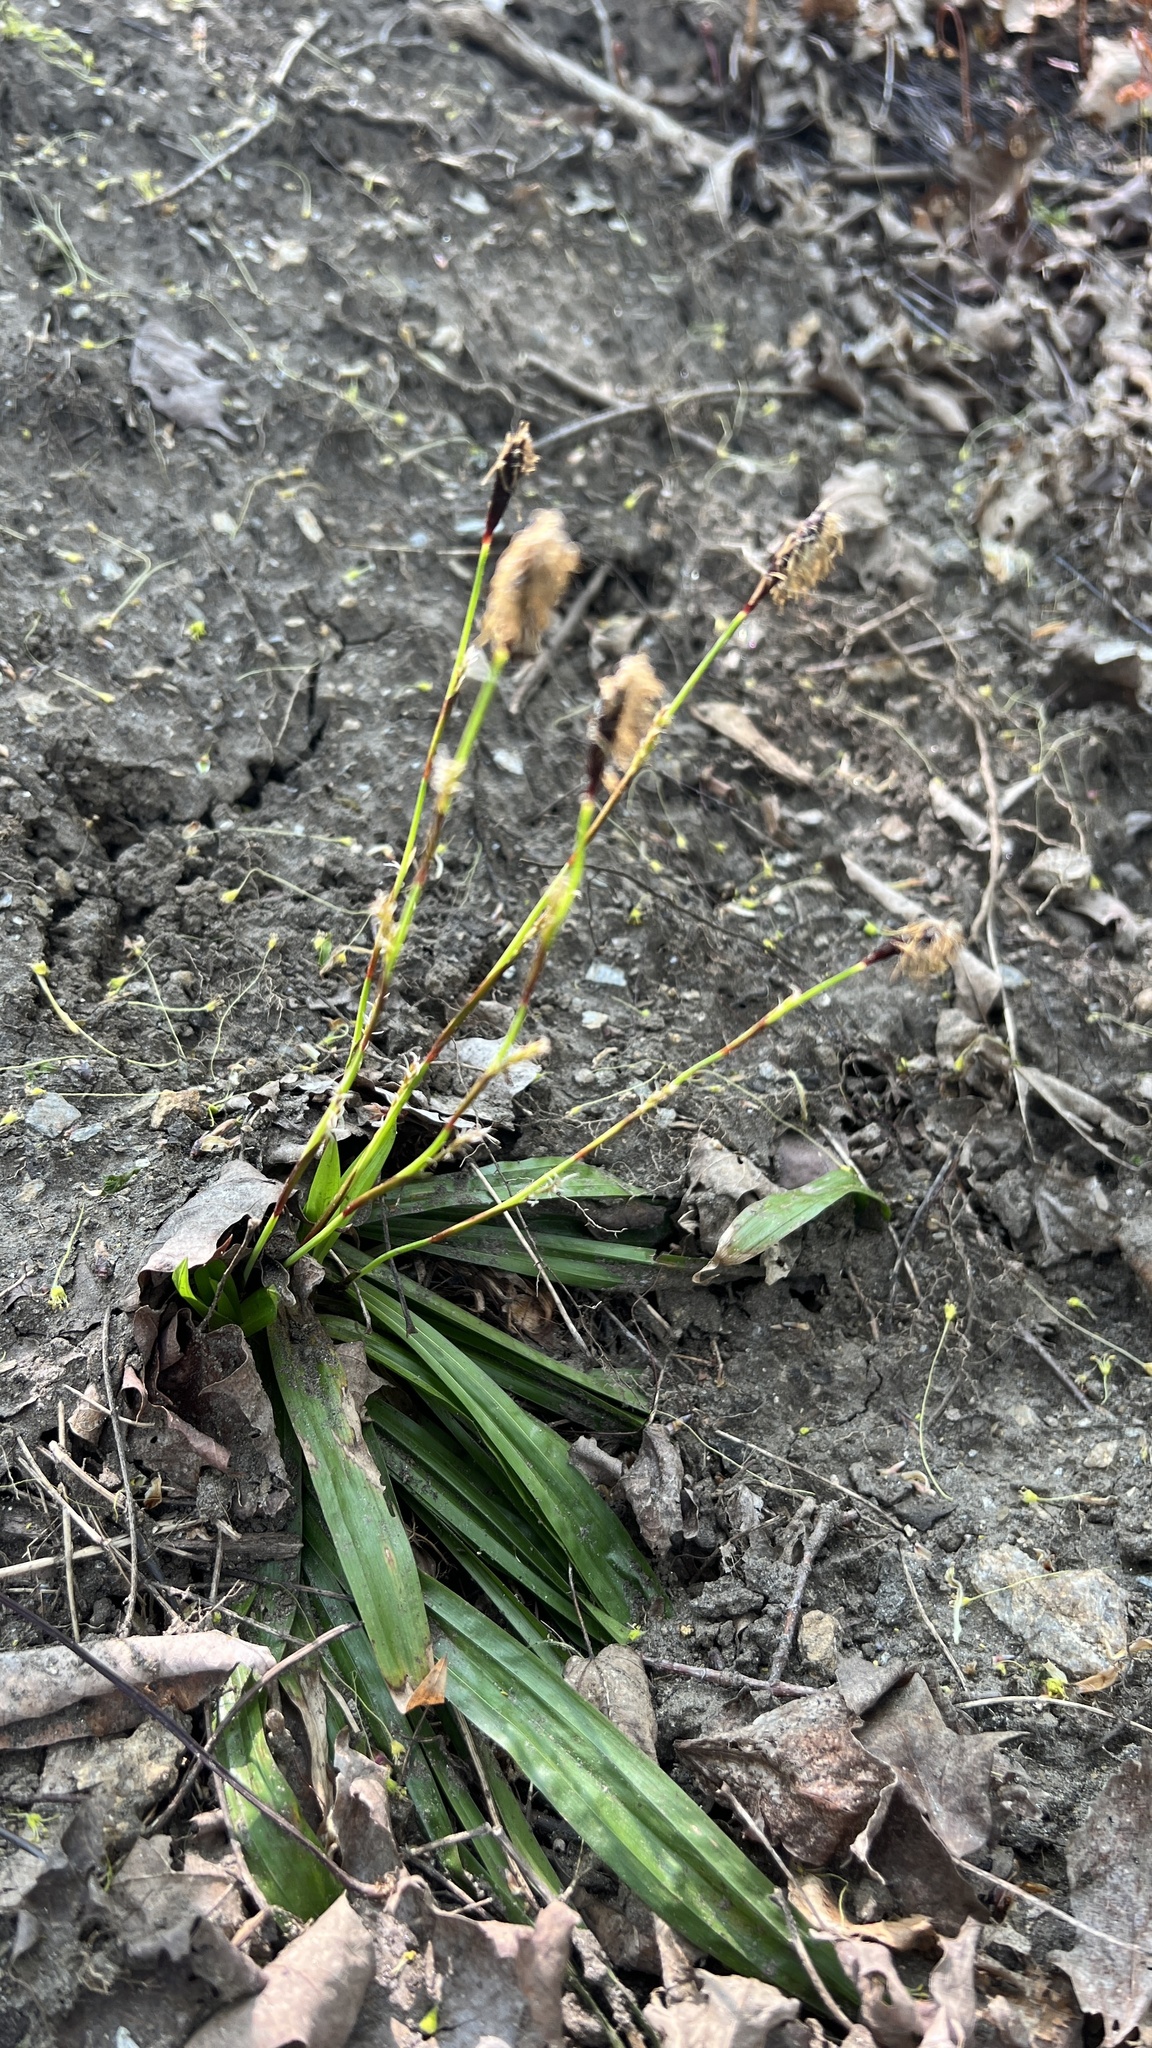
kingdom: Plantae
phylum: Tracheophyta
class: Liliopsida
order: Poales
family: Cyperaceae
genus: Carex
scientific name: Carex plantaginea
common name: Plantain-leaved sedge
